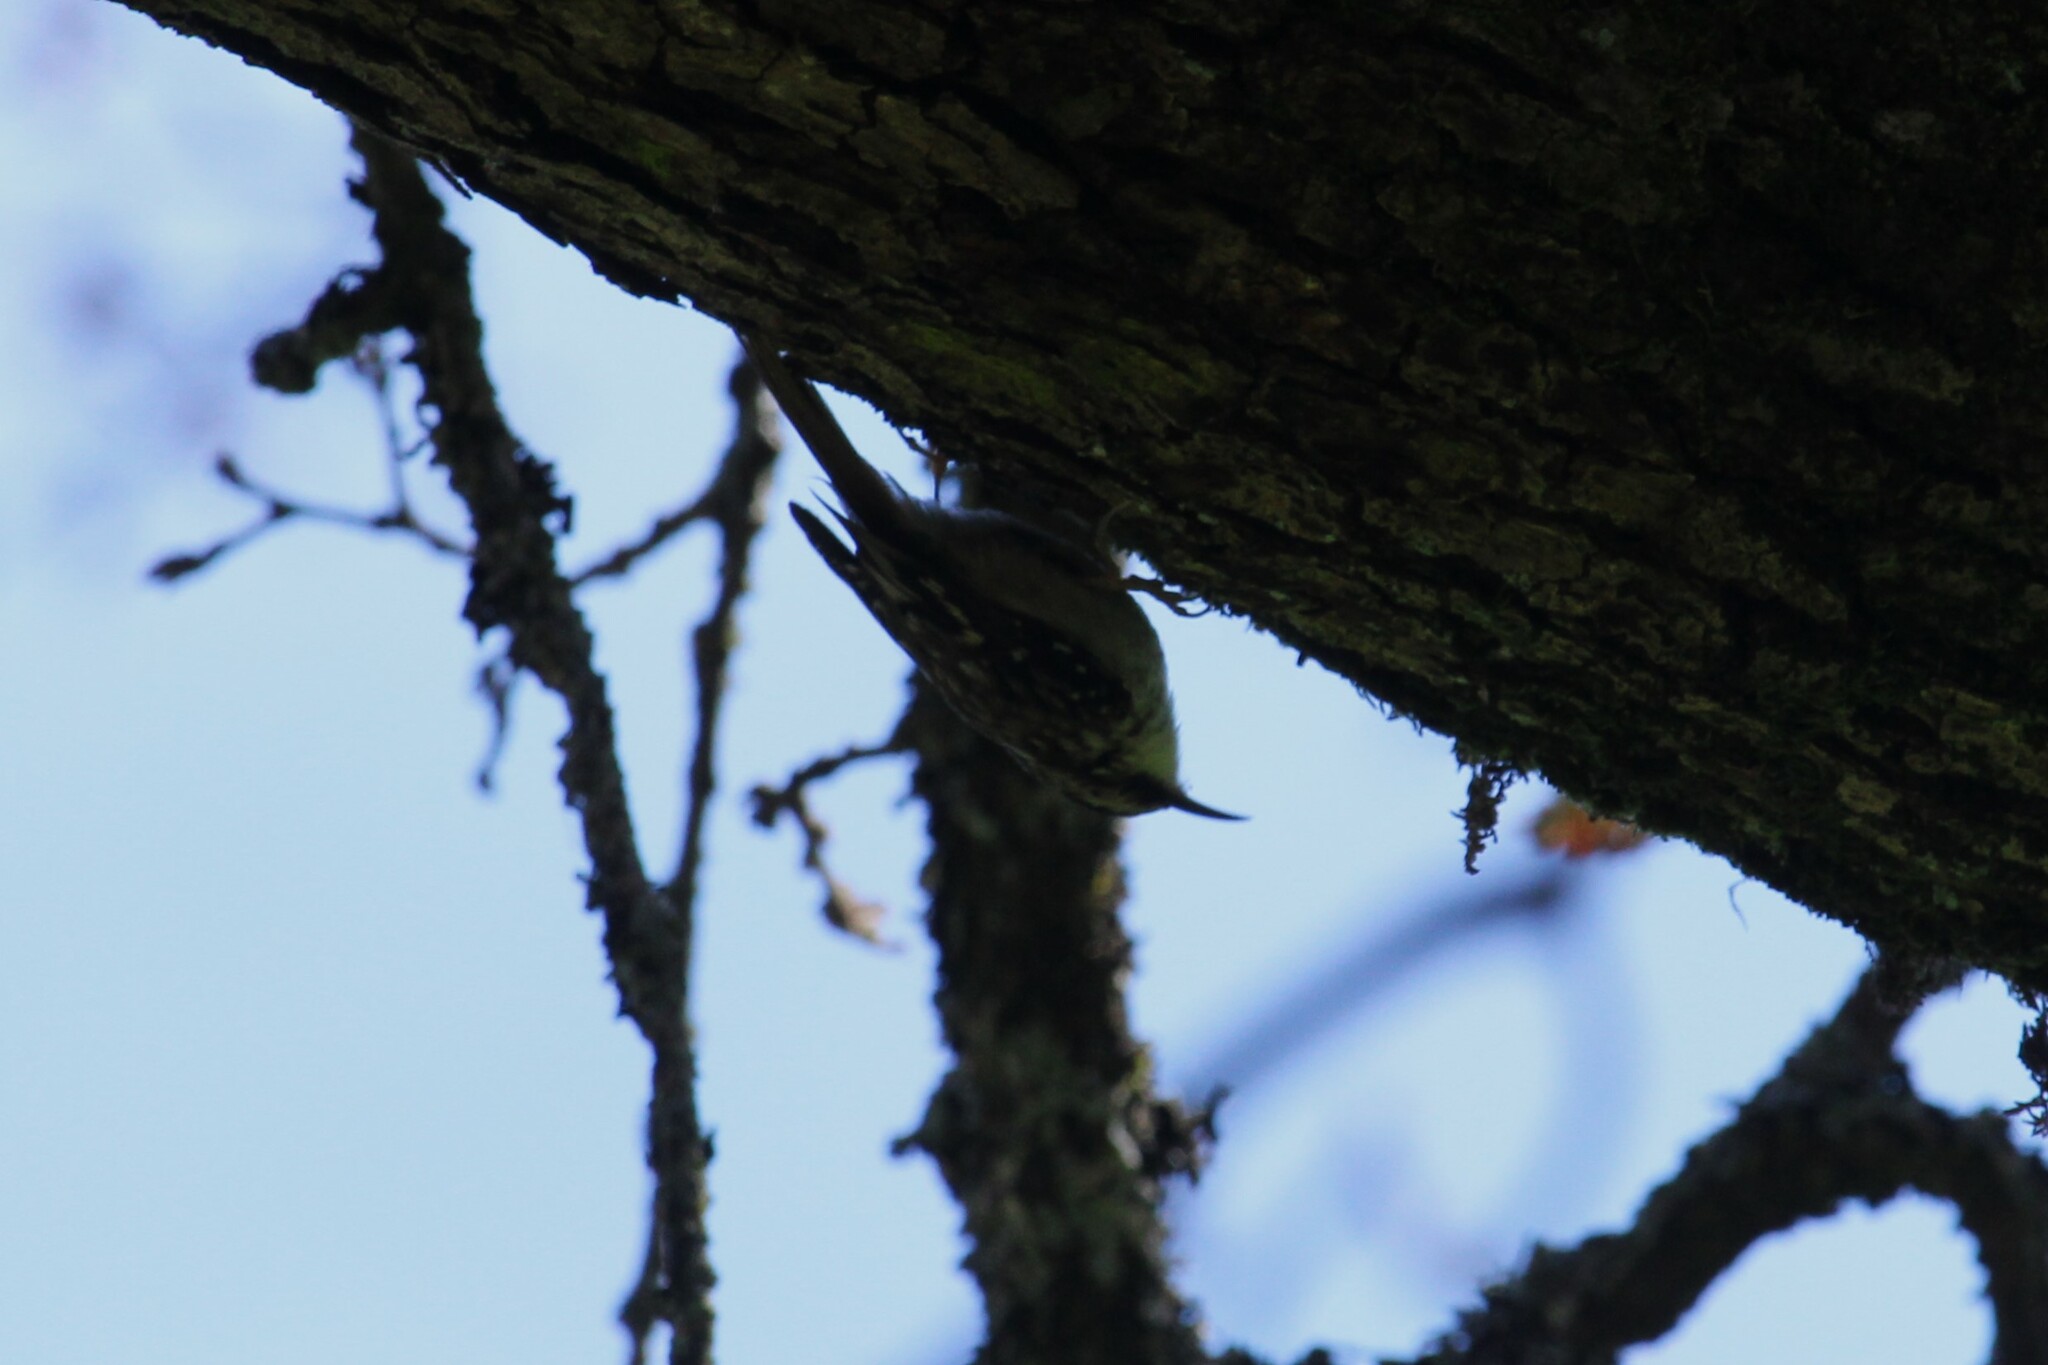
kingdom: Animalia
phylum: Chordata
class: Aves
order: Passeriformes
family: Certhiidae
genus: Certhia
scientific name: Certhia americana
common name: Brown creeper
